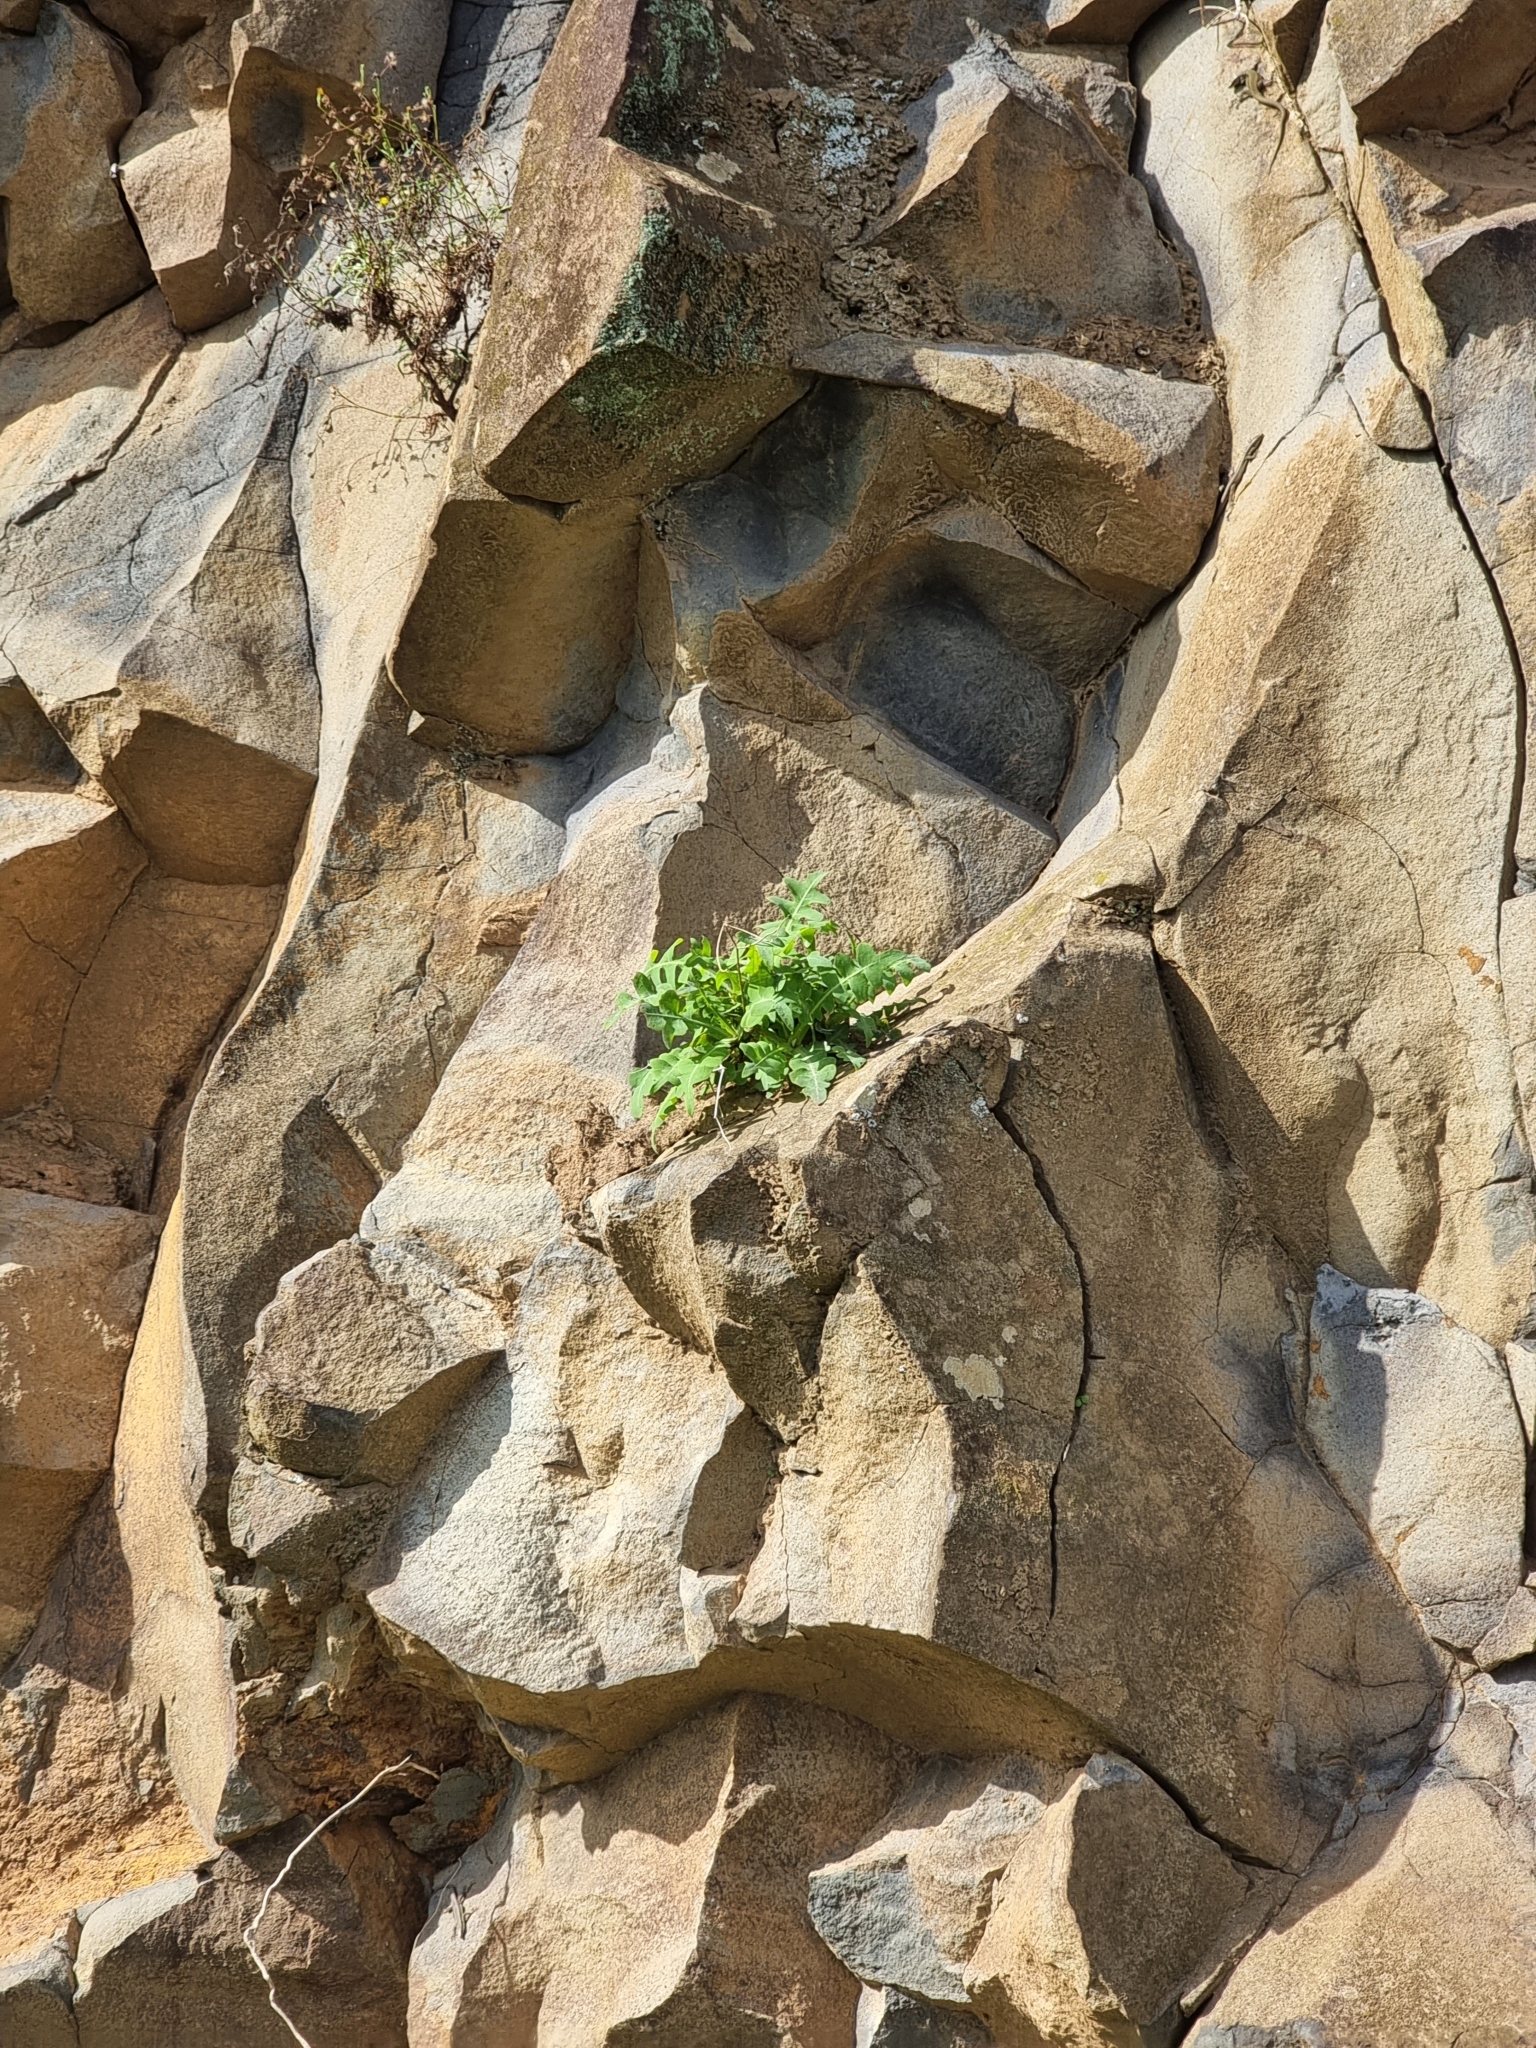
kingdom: Plantae
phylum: Tracheophyta
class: Magnoliopsida
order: Asterales
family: Asteraceae
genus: Sonchus
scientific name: Sonchus latifolius
